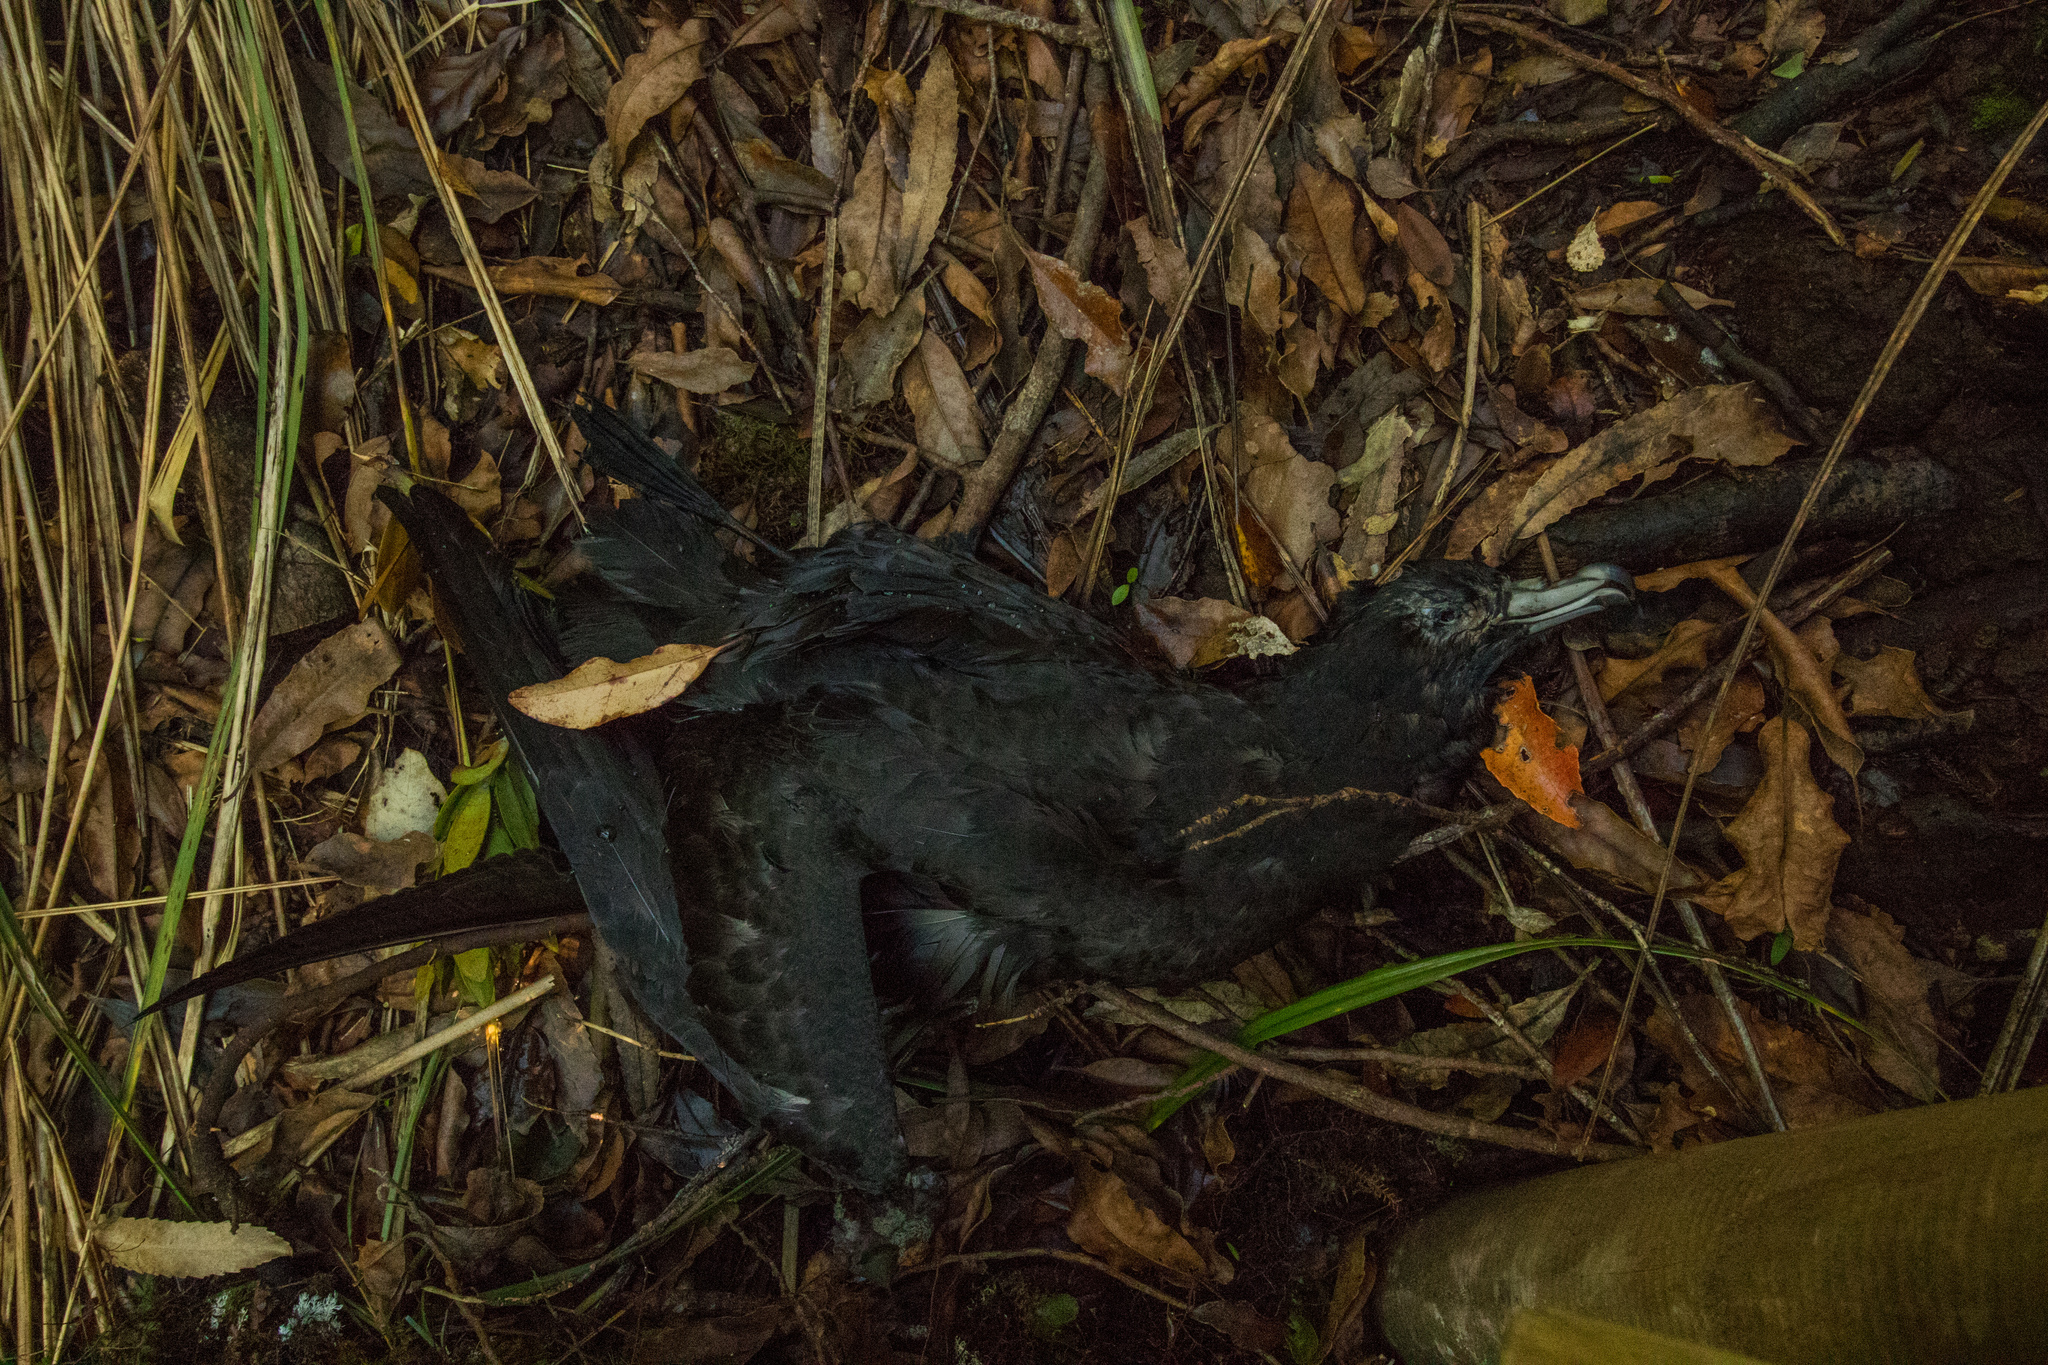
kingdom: Animalia
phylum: Chordata
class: Aves
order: Procellariiformes
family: Procellariidae
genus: Procellaria
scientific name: Procellaria parkinsoni
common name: Black petrel
